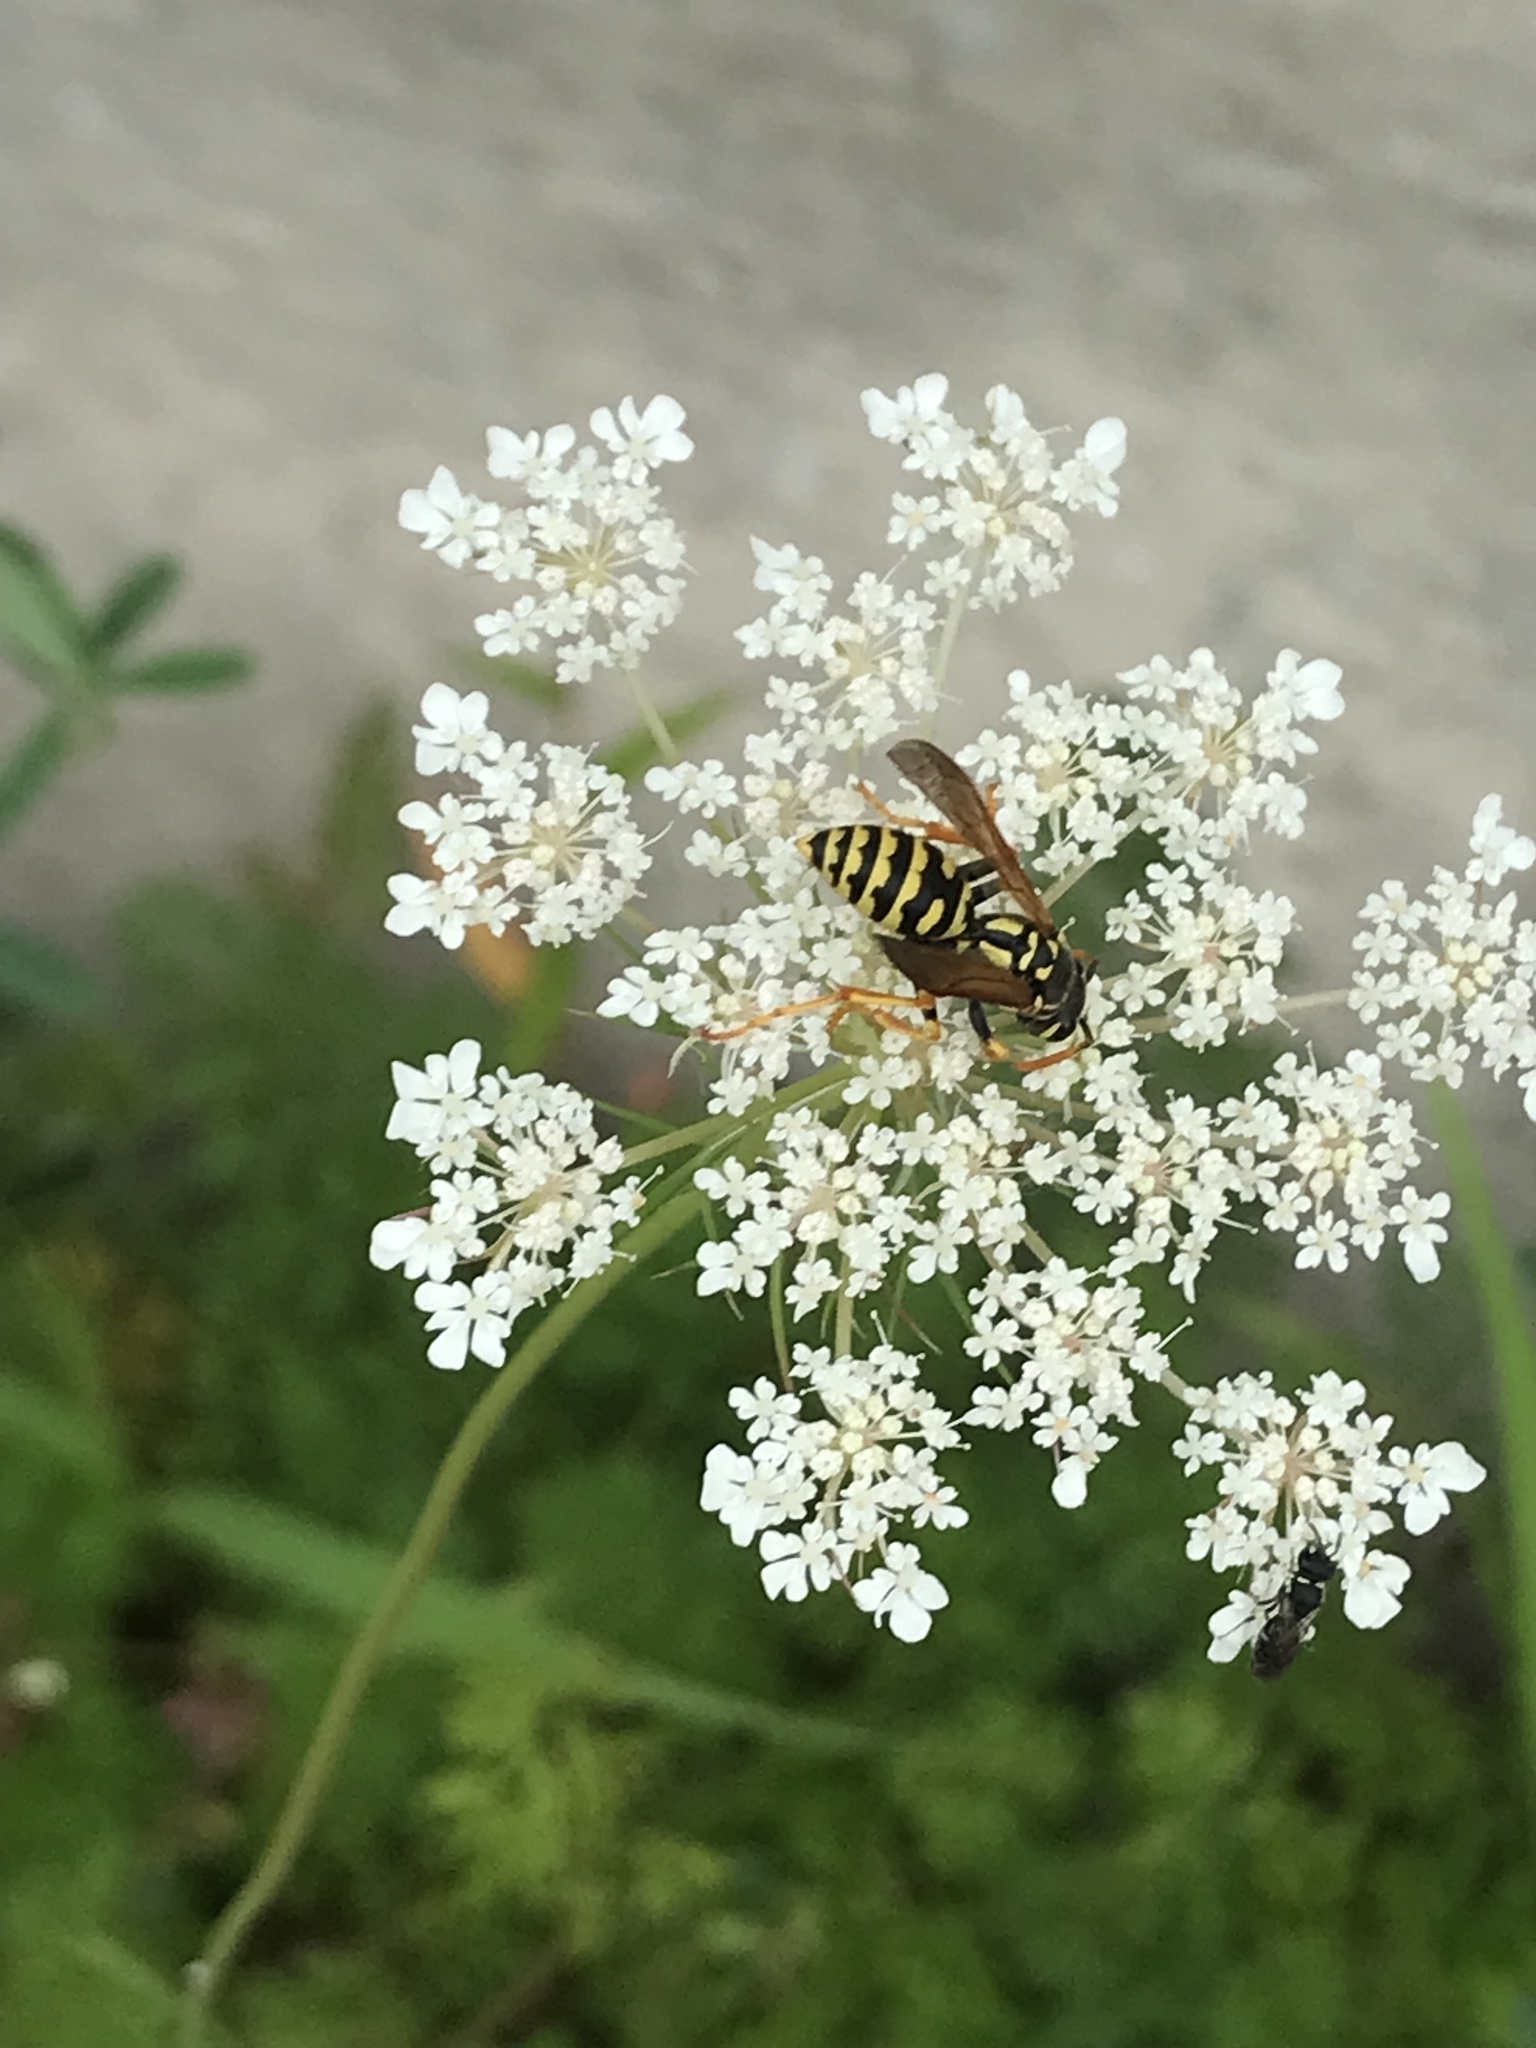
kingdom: Animalia
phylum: Arthropoda
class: Insecta
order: Hymenoptera
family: Eumenidae
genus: Polistes
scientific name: Polistes dominula
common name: Paper wasp
